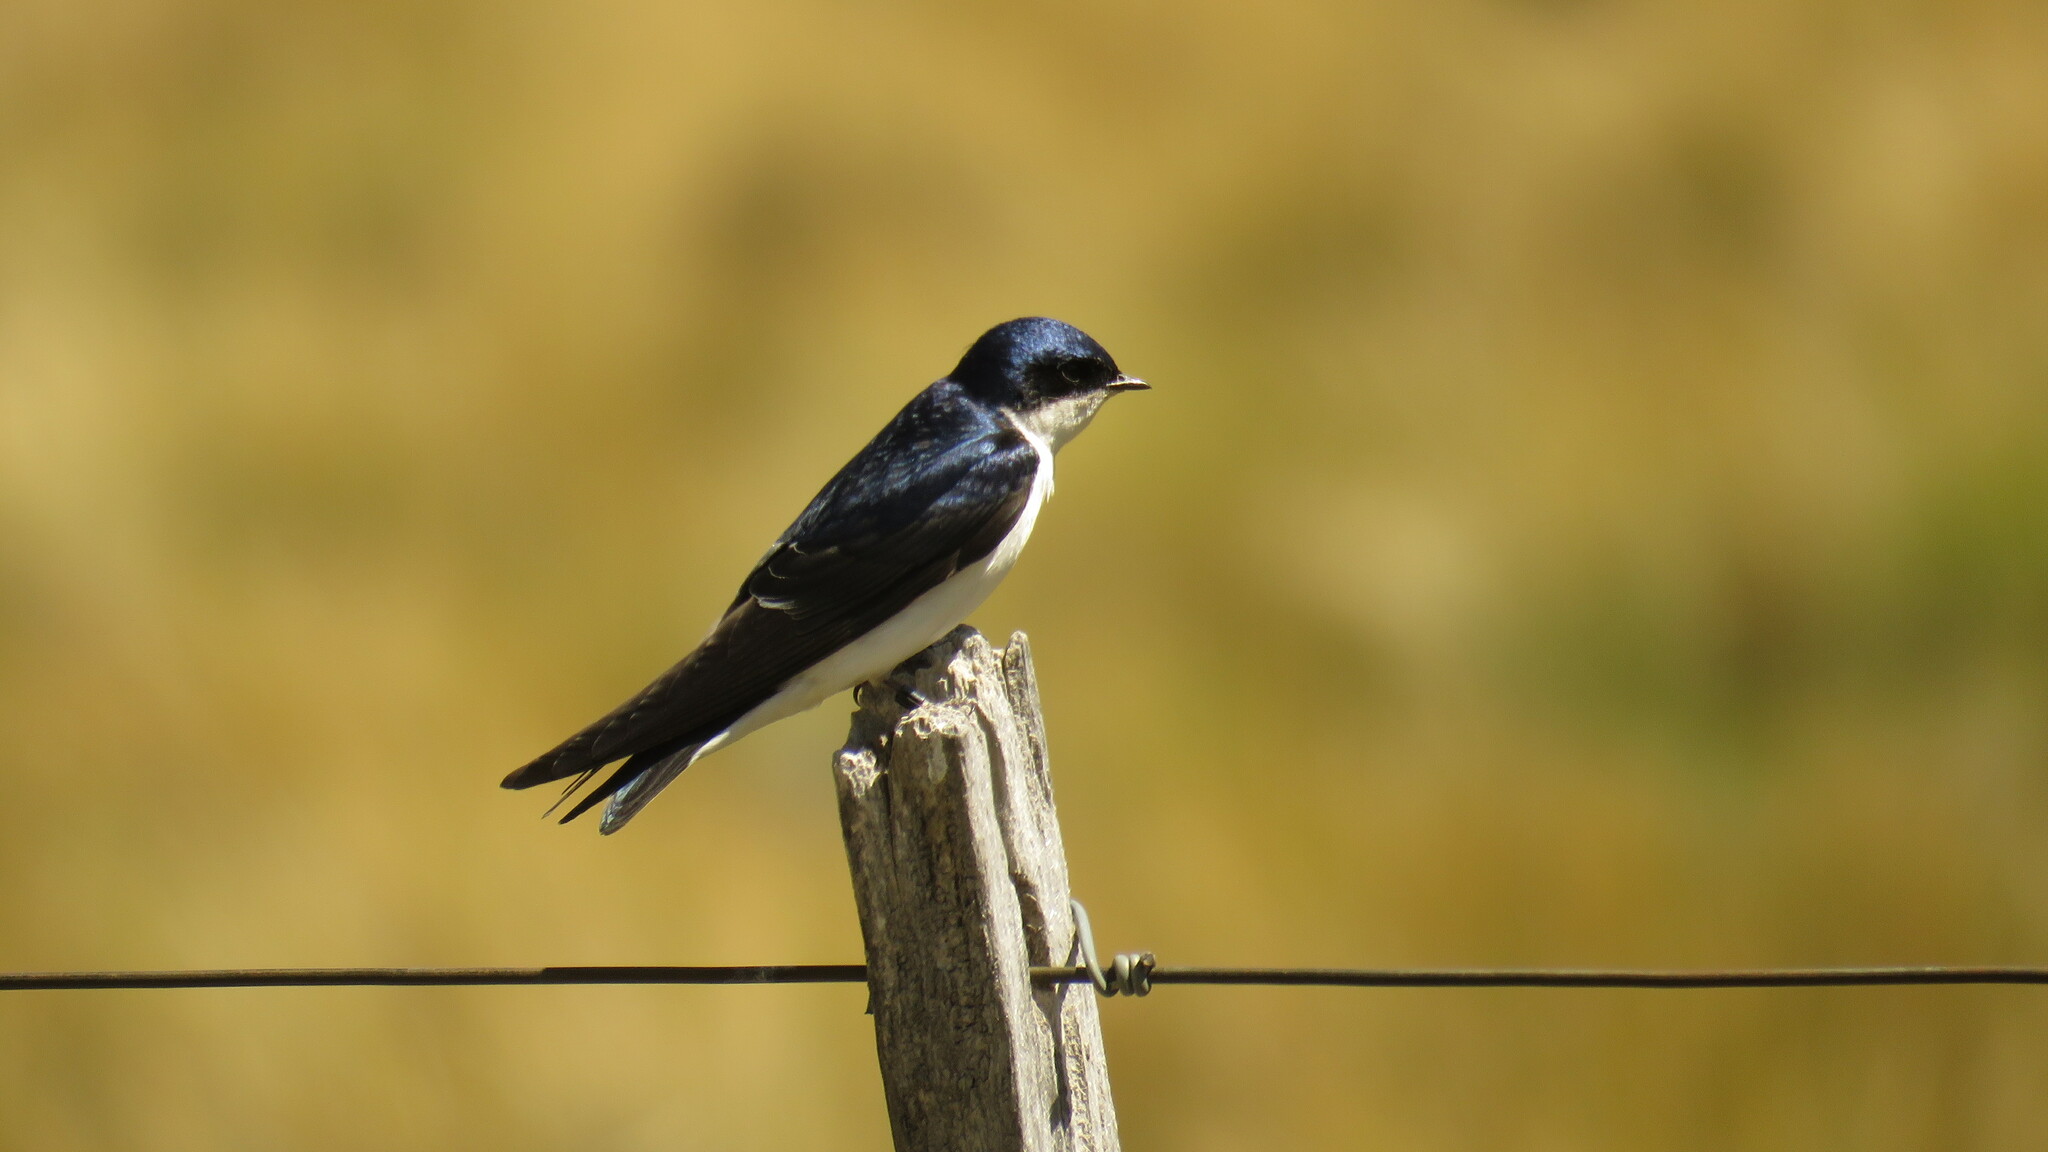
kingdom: Animalia
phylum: Chordata
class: Aves
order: Passeriformes
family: Hirundinidae
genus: Tachycineta
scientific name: Tachycineta leucopyga
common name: Chilean swallow
